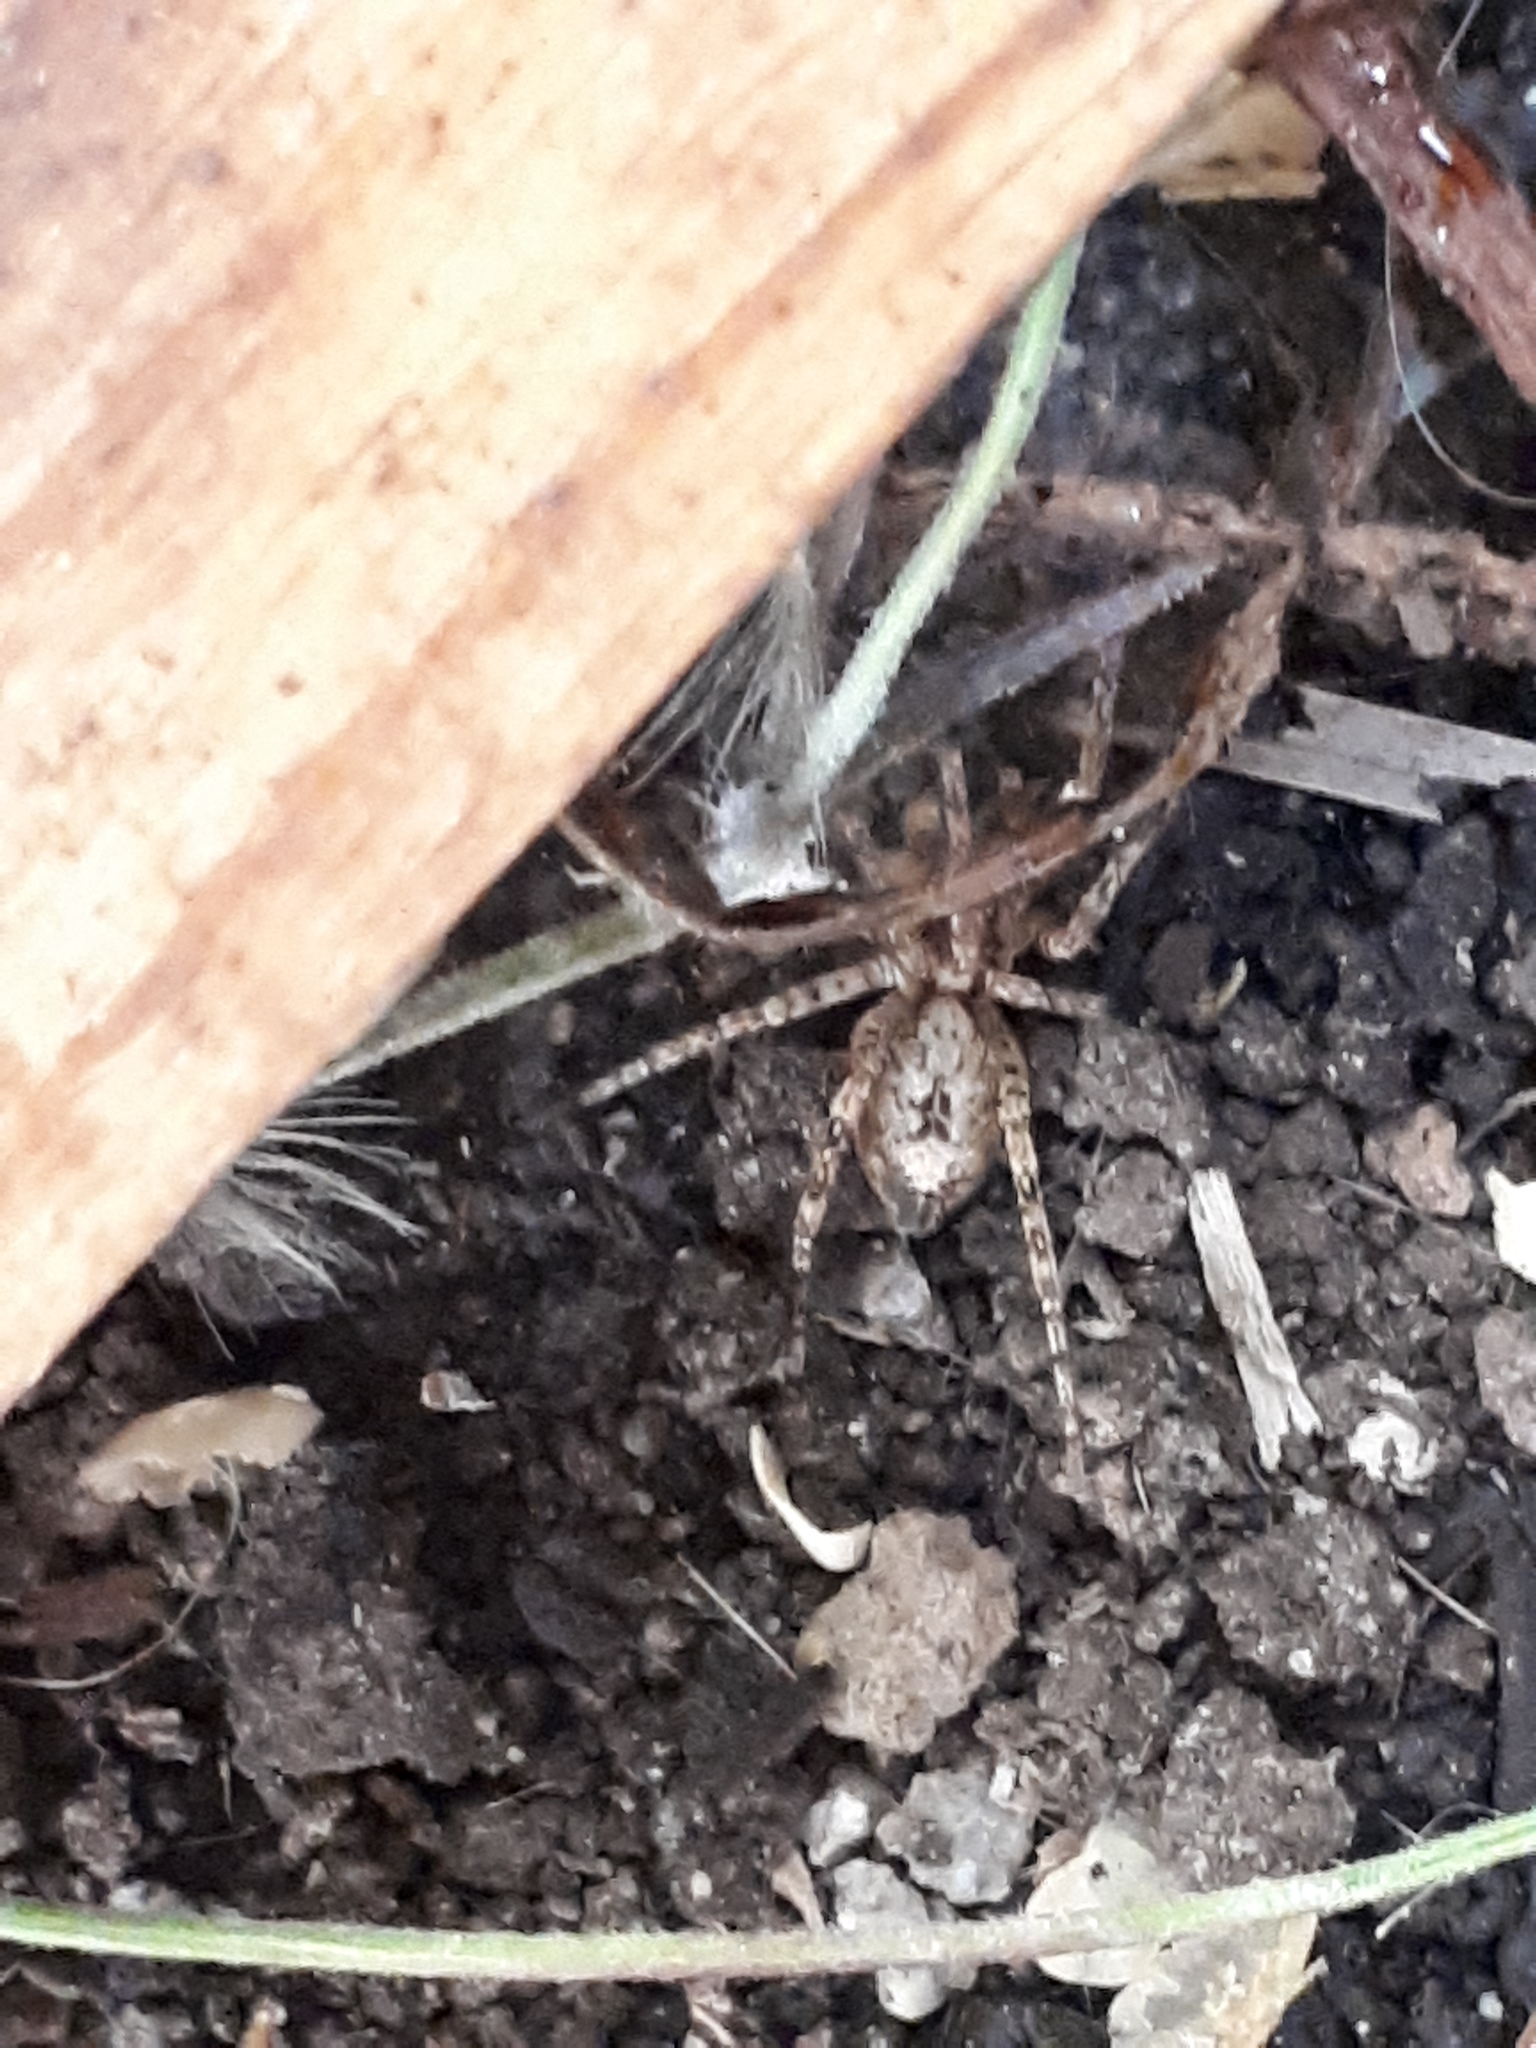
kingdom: Animalia
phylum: Arthropoda
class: Arachnida
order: Araneae
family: Anyphaenidae
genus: Anyphaena
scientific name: Anyphaena accentuata
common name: Buzzing spider
